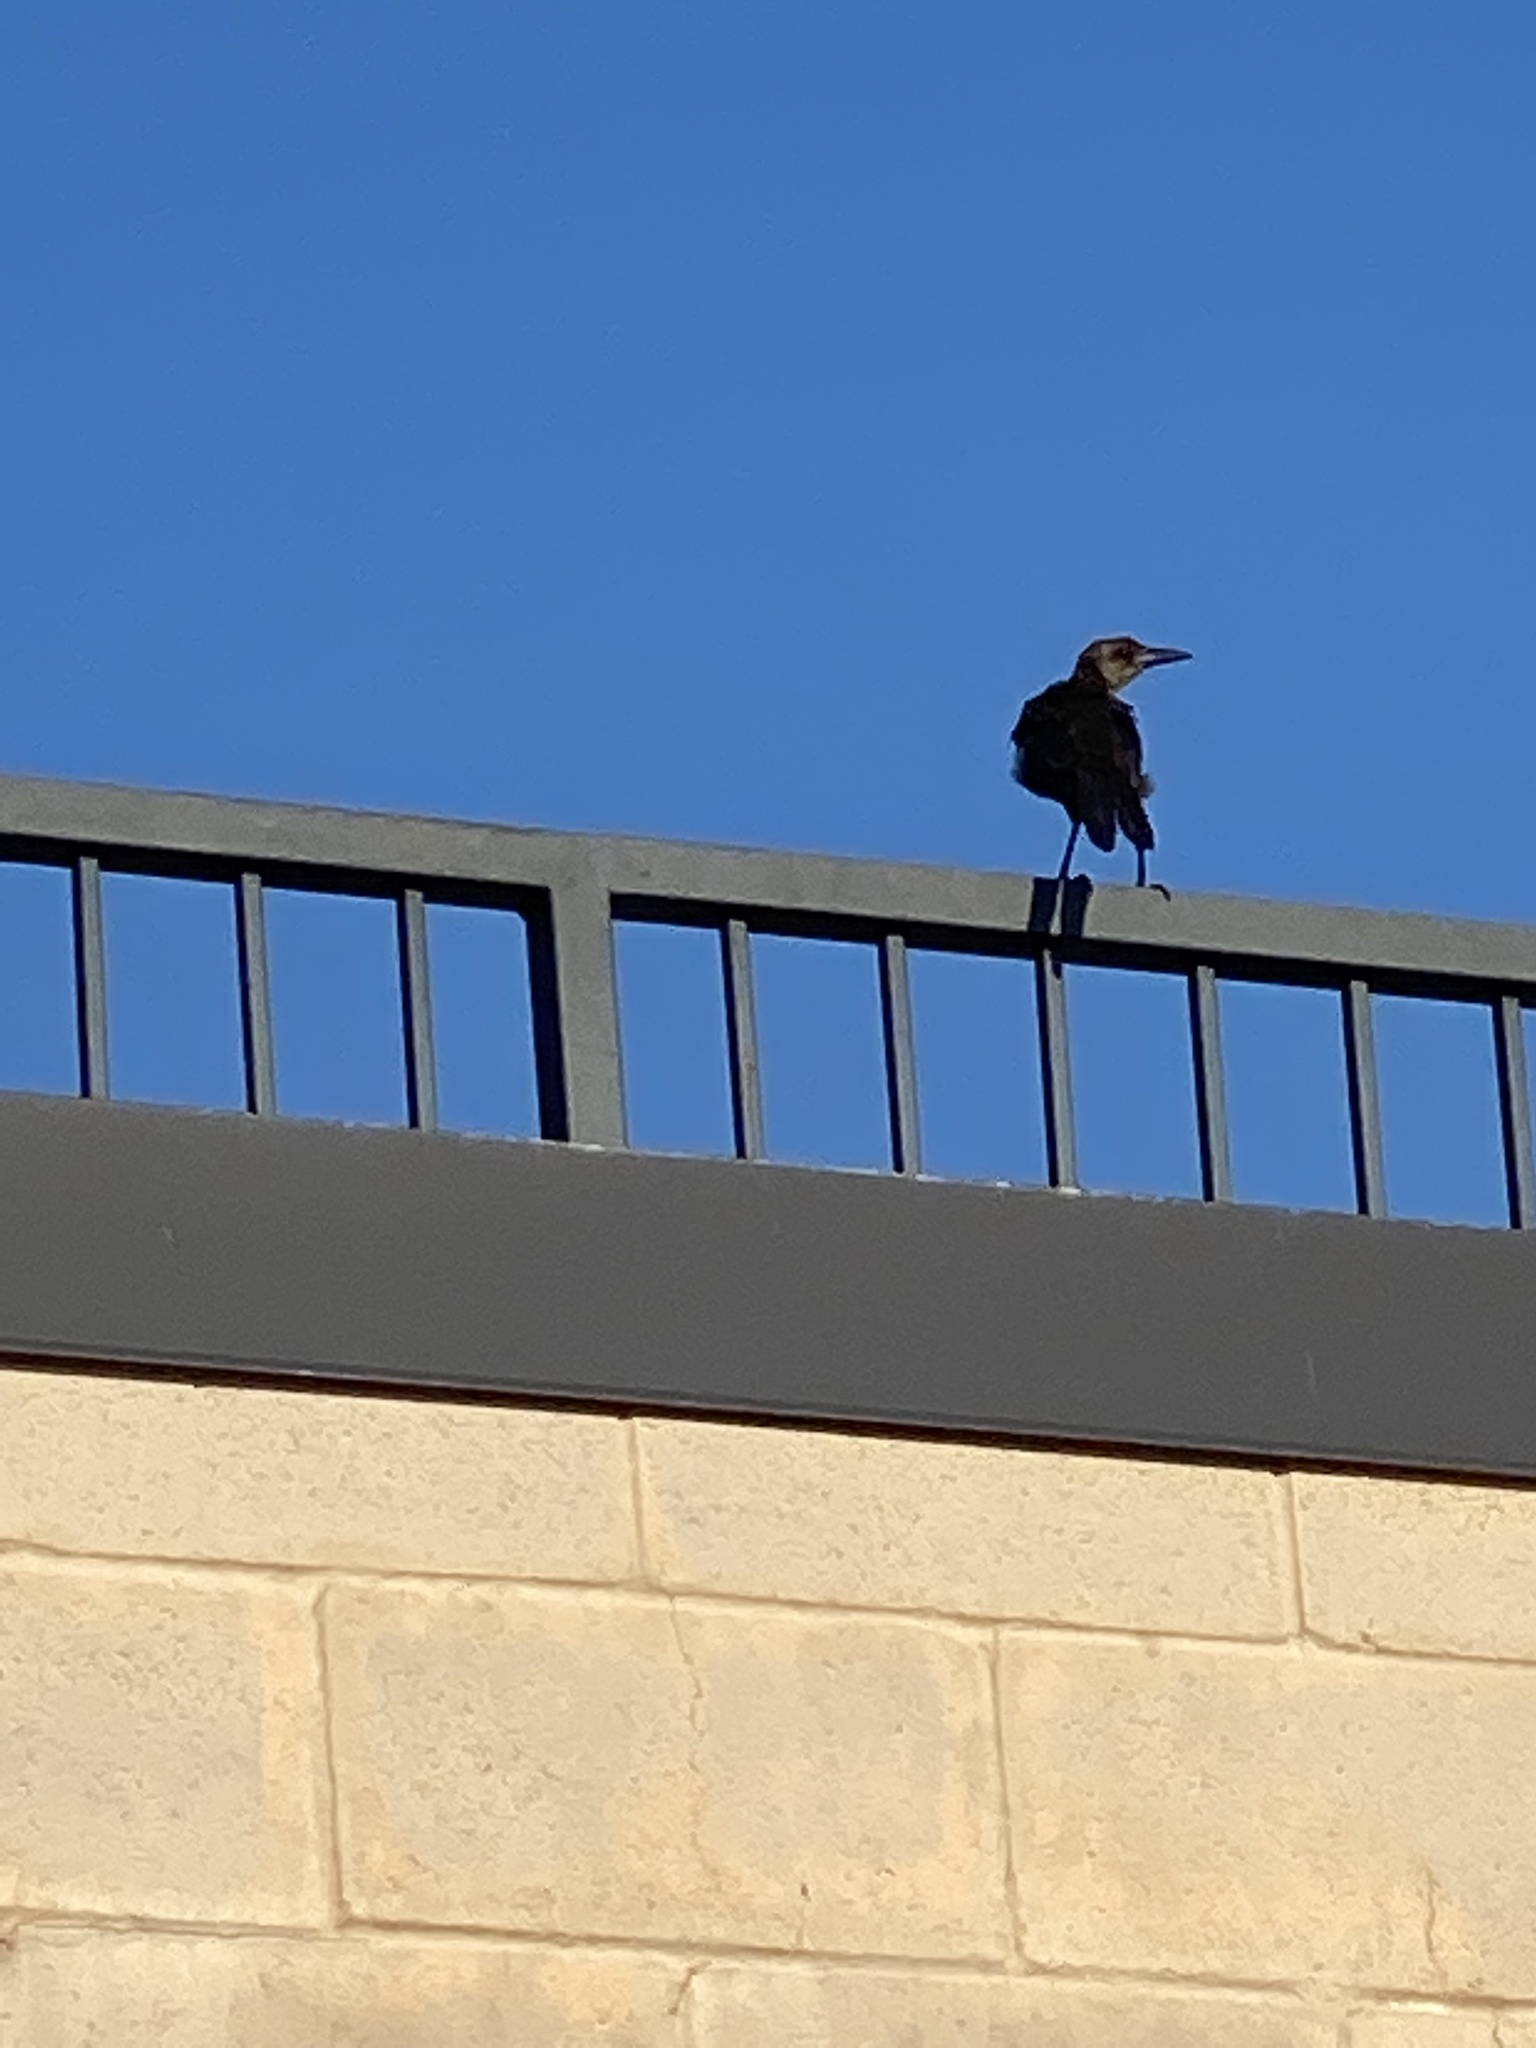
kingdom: Animalia
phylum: Chordata
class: Aves
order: Passeriformes
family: Icteridae
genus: Quiscalus
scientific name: Quiscalus mexicanus
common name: Great-tailed grackle
